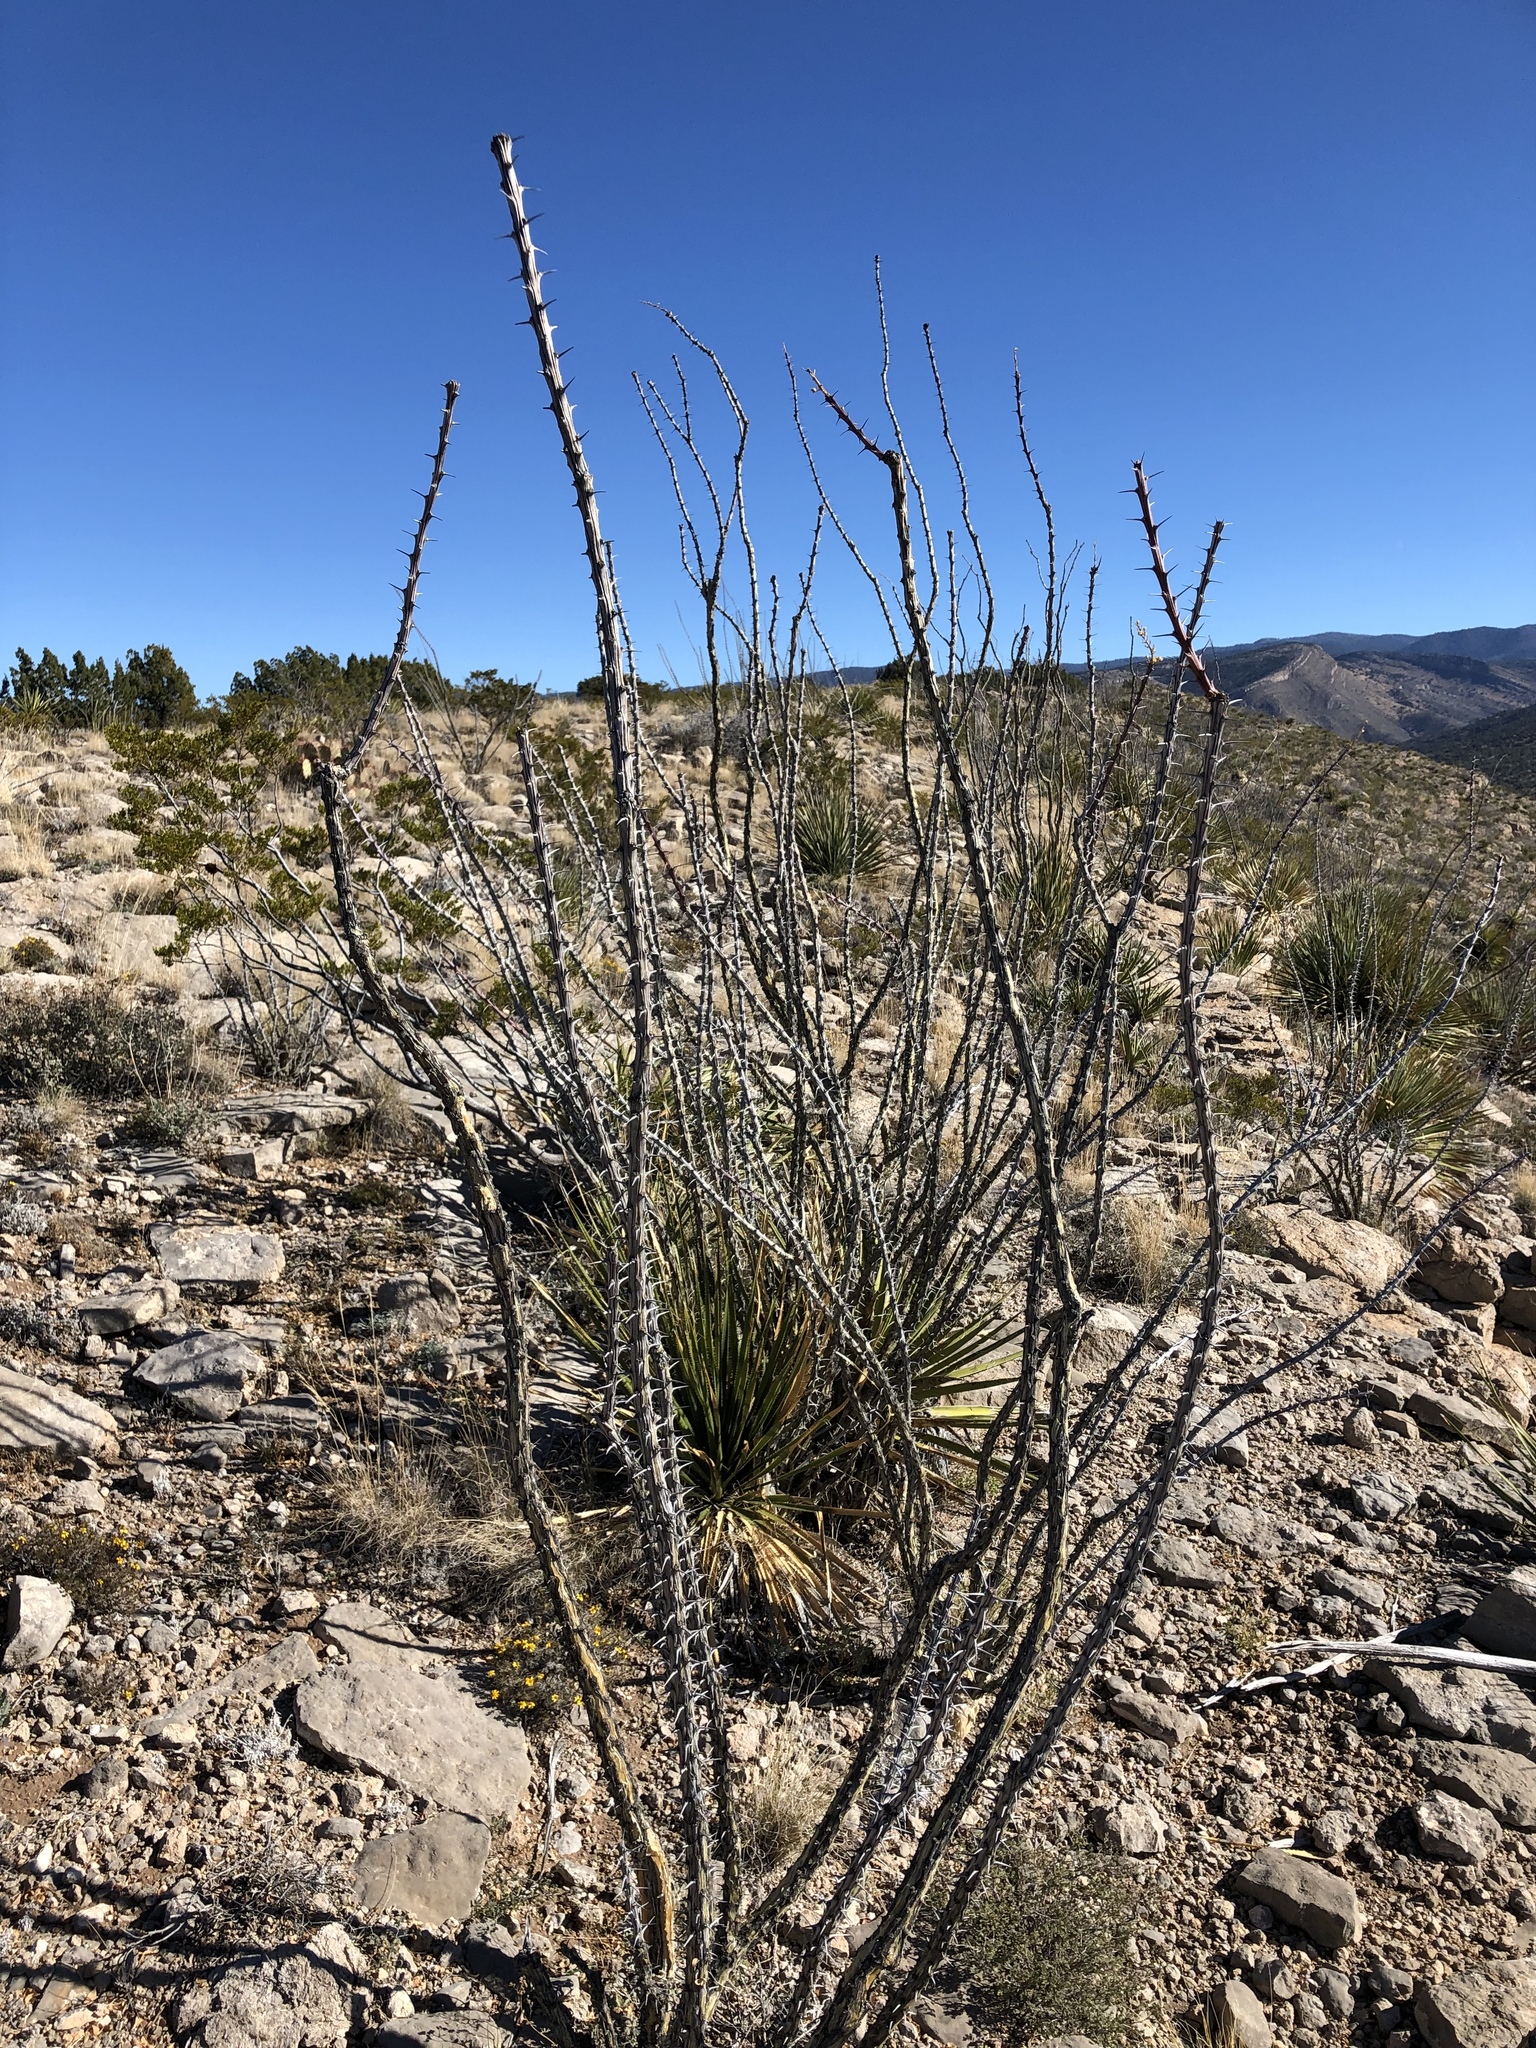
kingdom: Plantae
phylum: Tracheophyta
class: Magnoliopsida
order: Ericales
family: Fouquieriaceae
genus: Fouquieria
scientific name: Fouquieria splendens
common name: Vine-cactus
